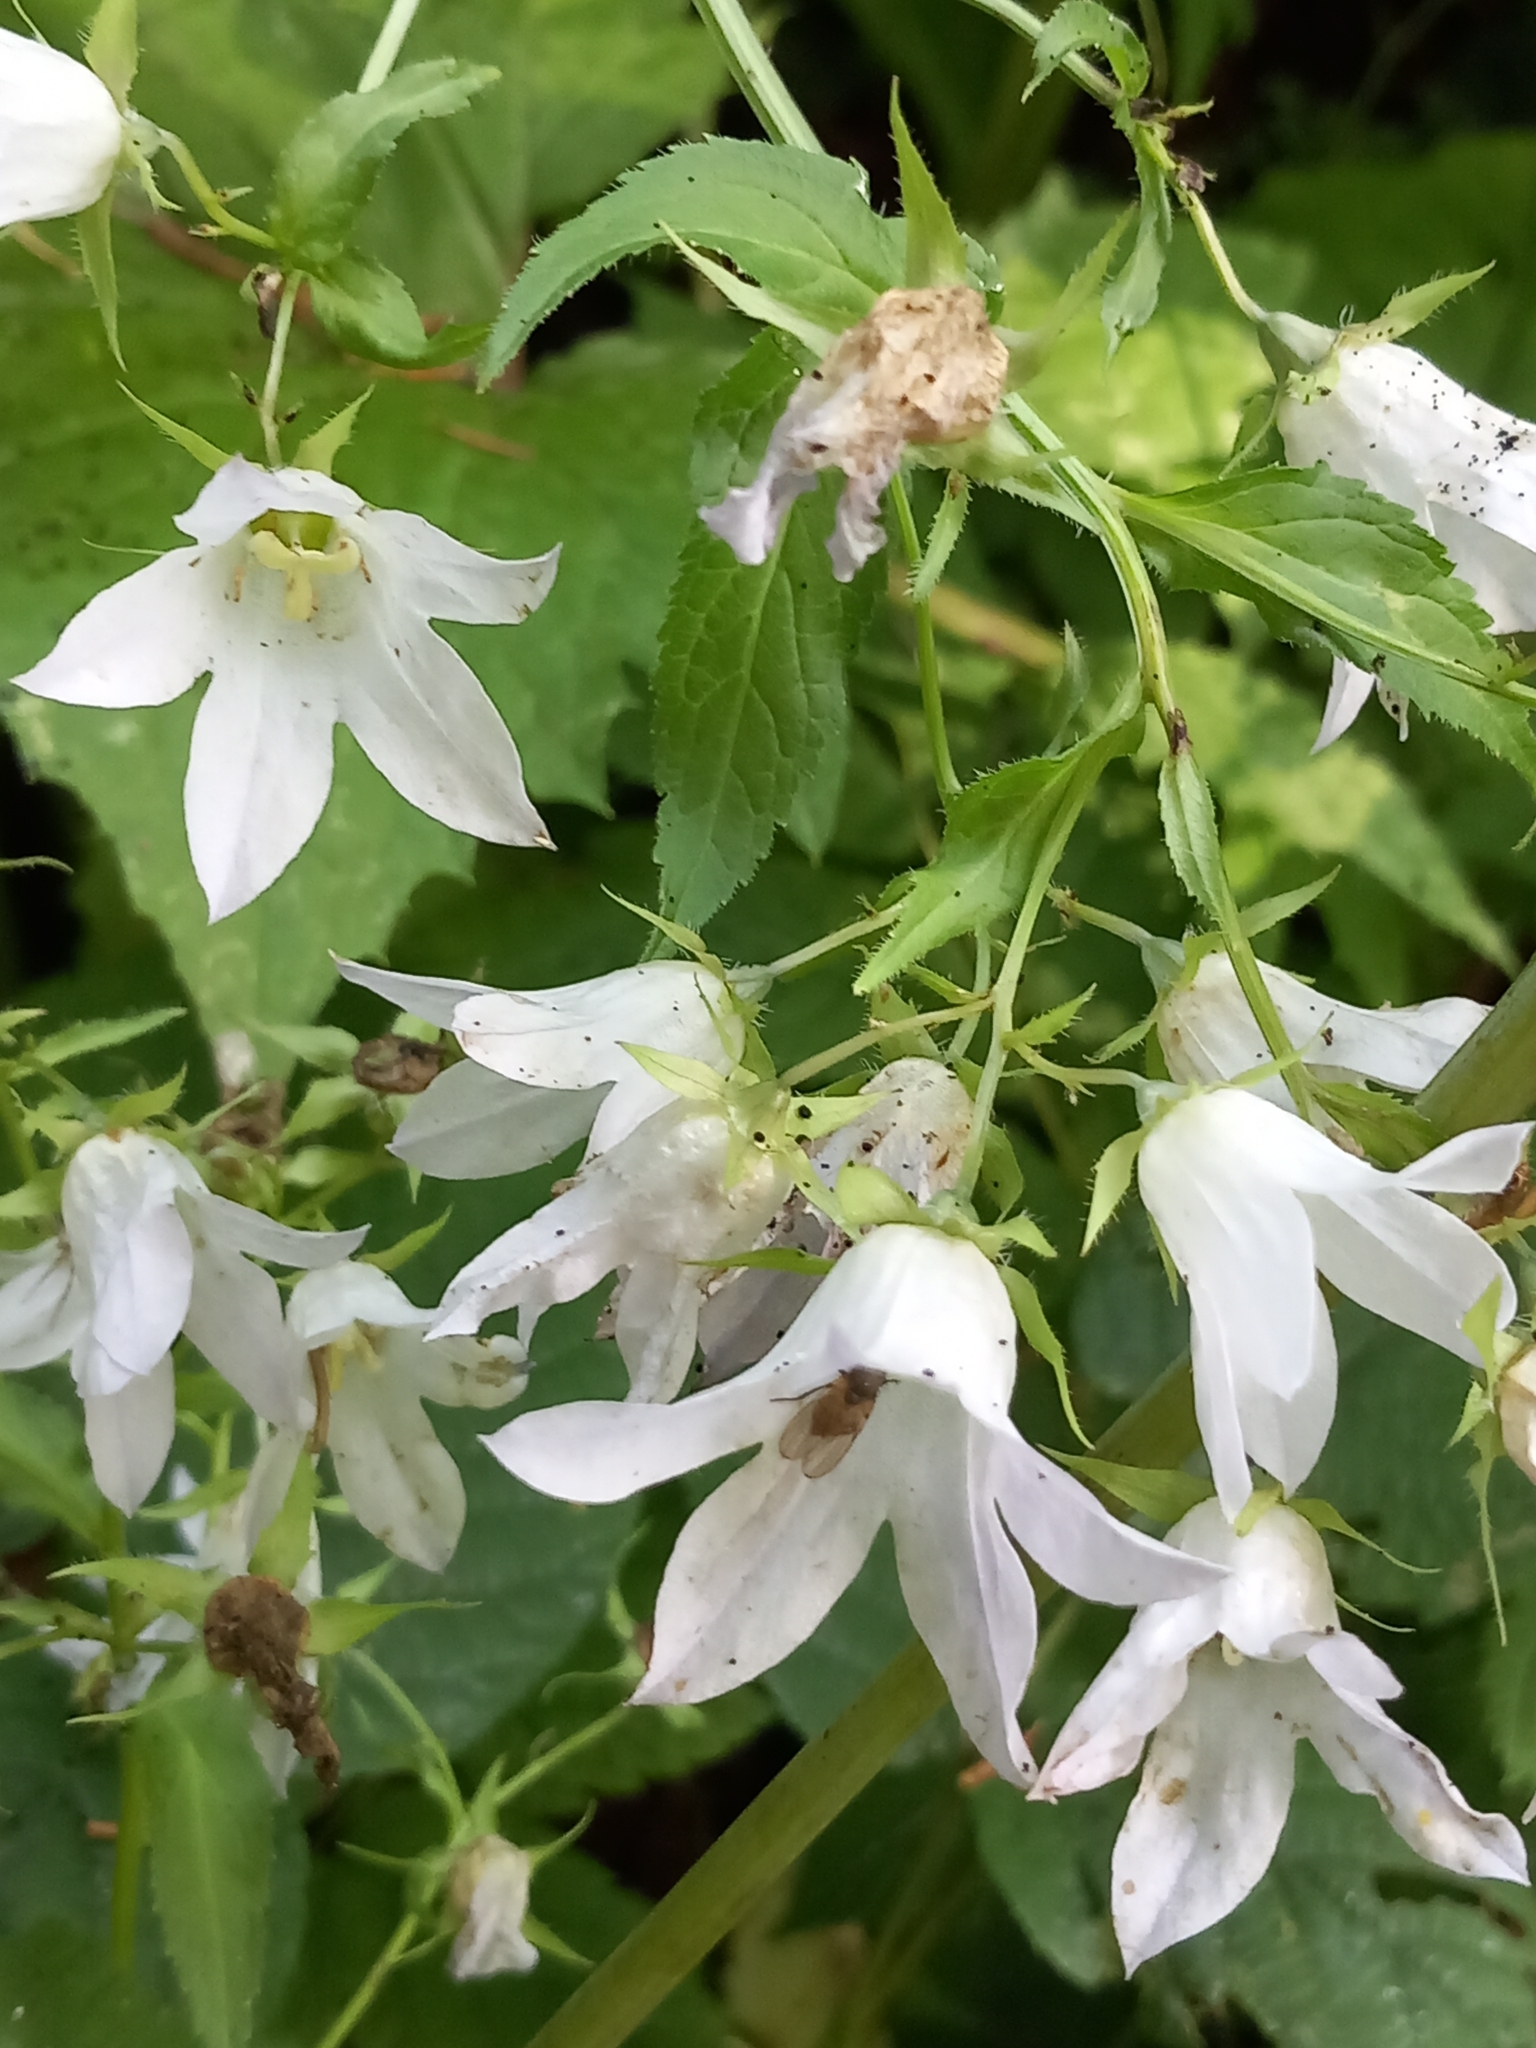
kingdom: Plantae
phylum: Tracheophyta
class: Magnoliopsida
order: Asterales
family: Campanulaceae
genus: Campanula
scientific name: Campanula lactiflora
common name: Milky bellflower
